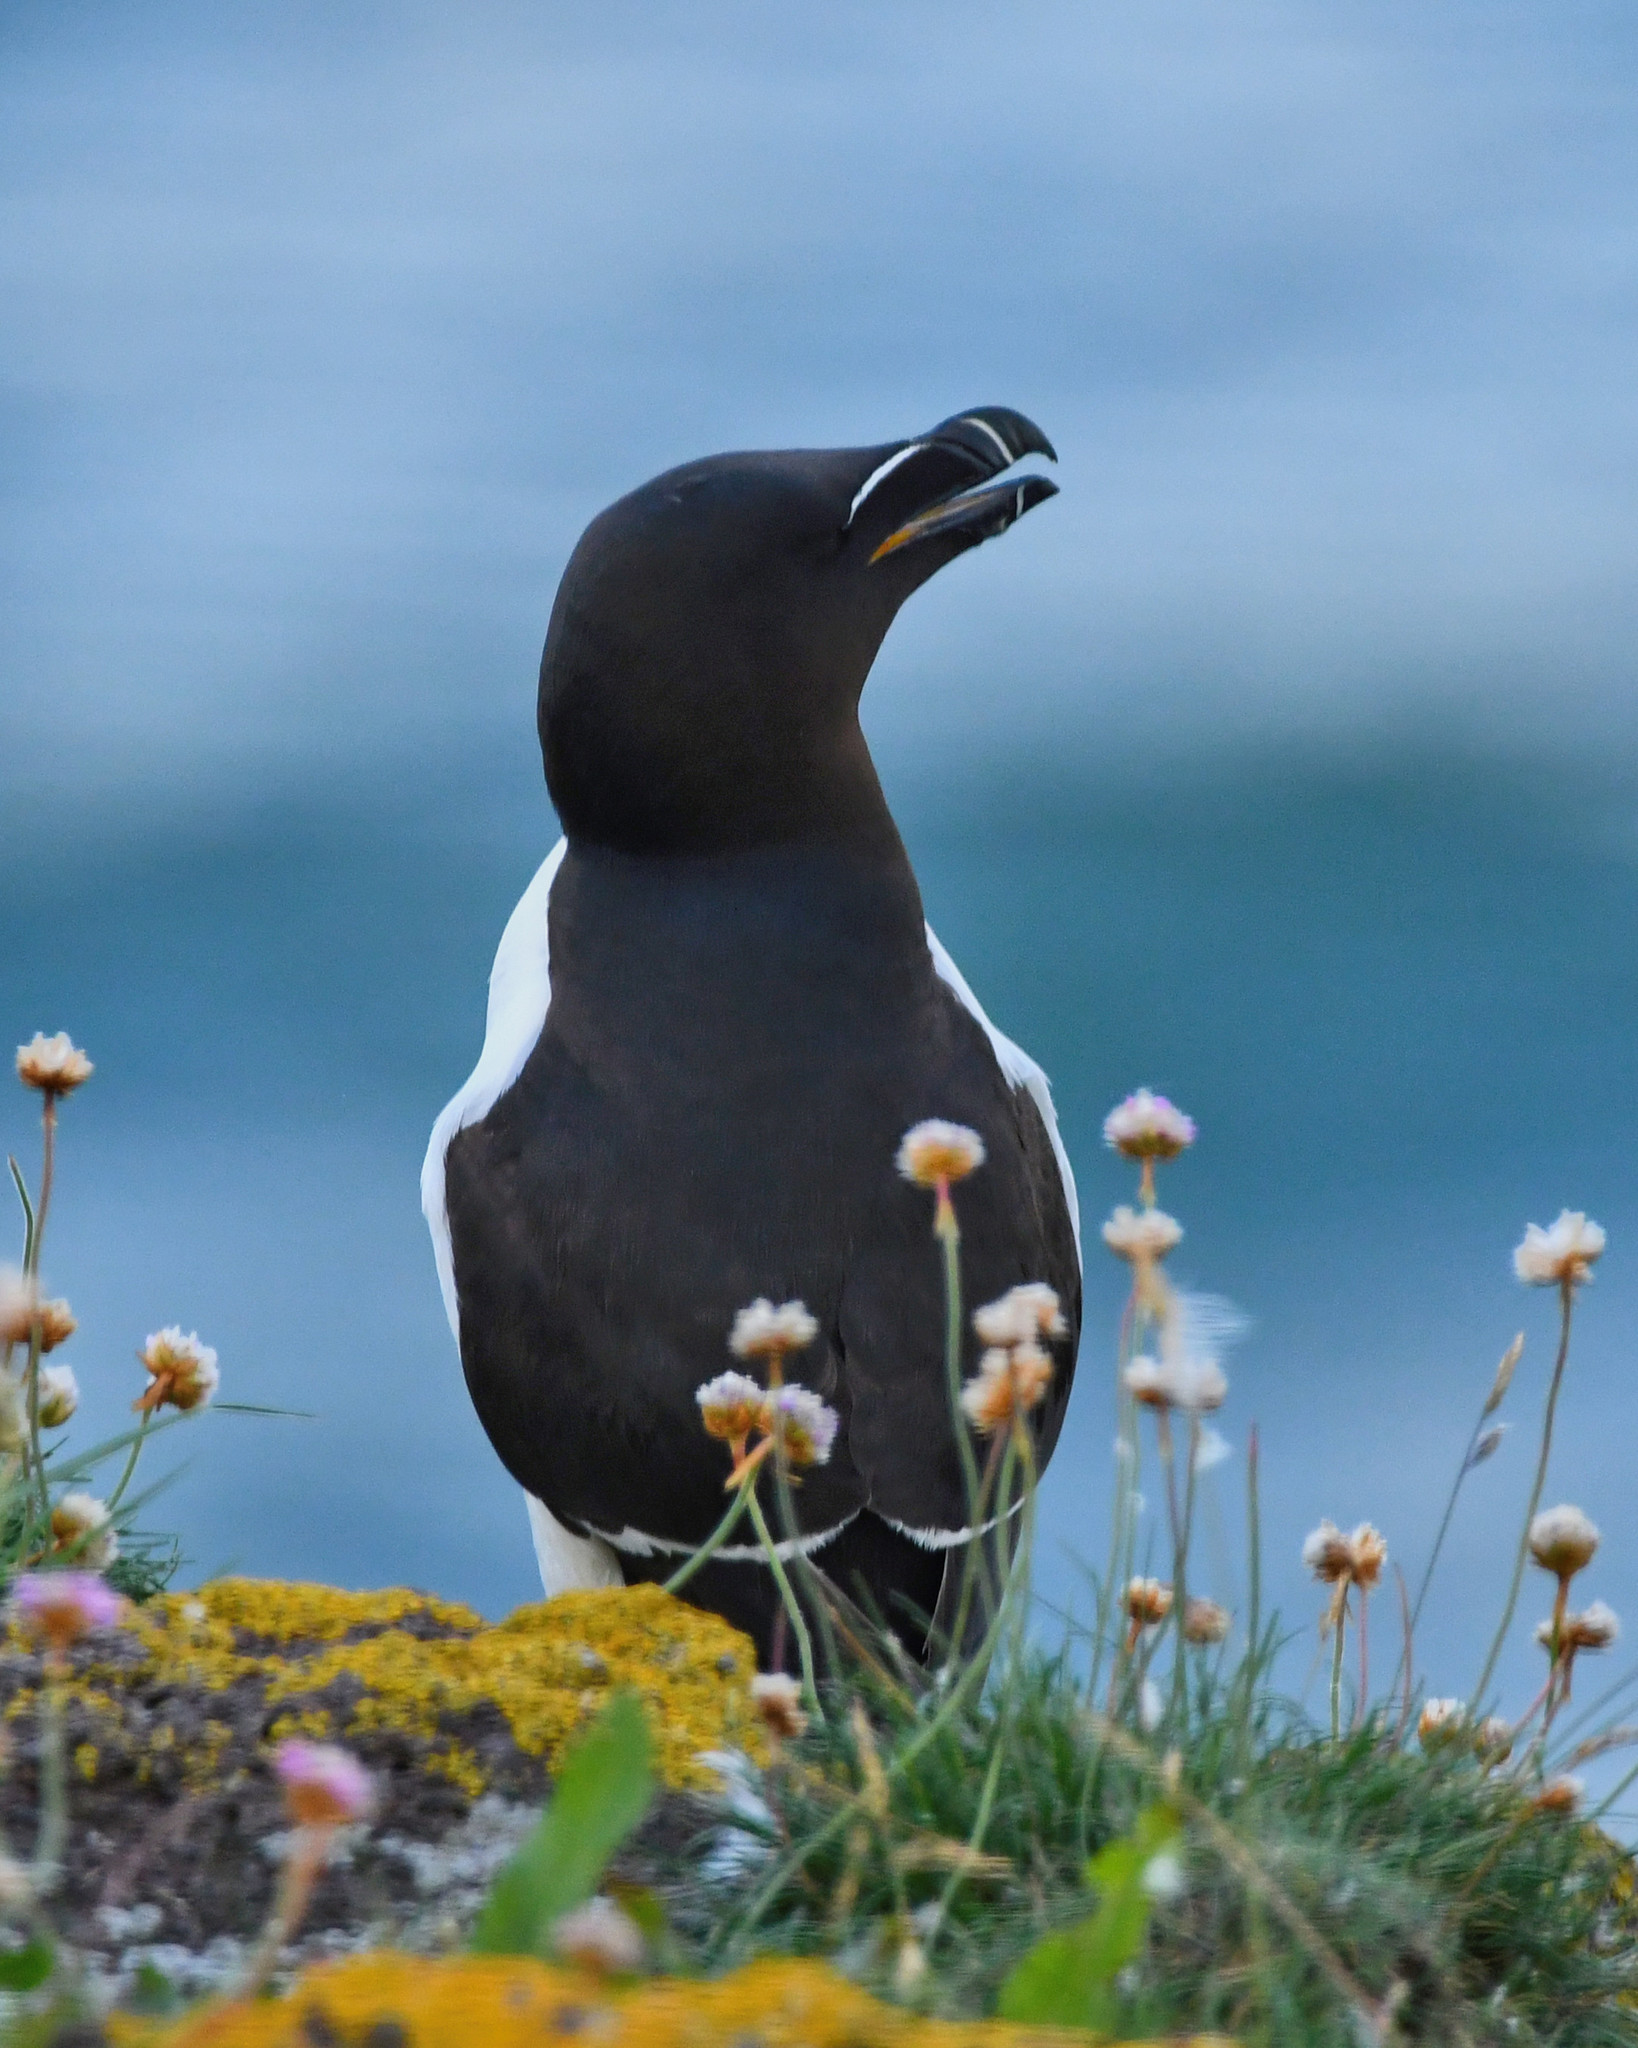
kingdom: Animalia
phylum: Chordata
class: Aves
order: Charadriiformes
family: Alcidae
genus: Alca
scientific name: Alca torda
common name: Razorbill
